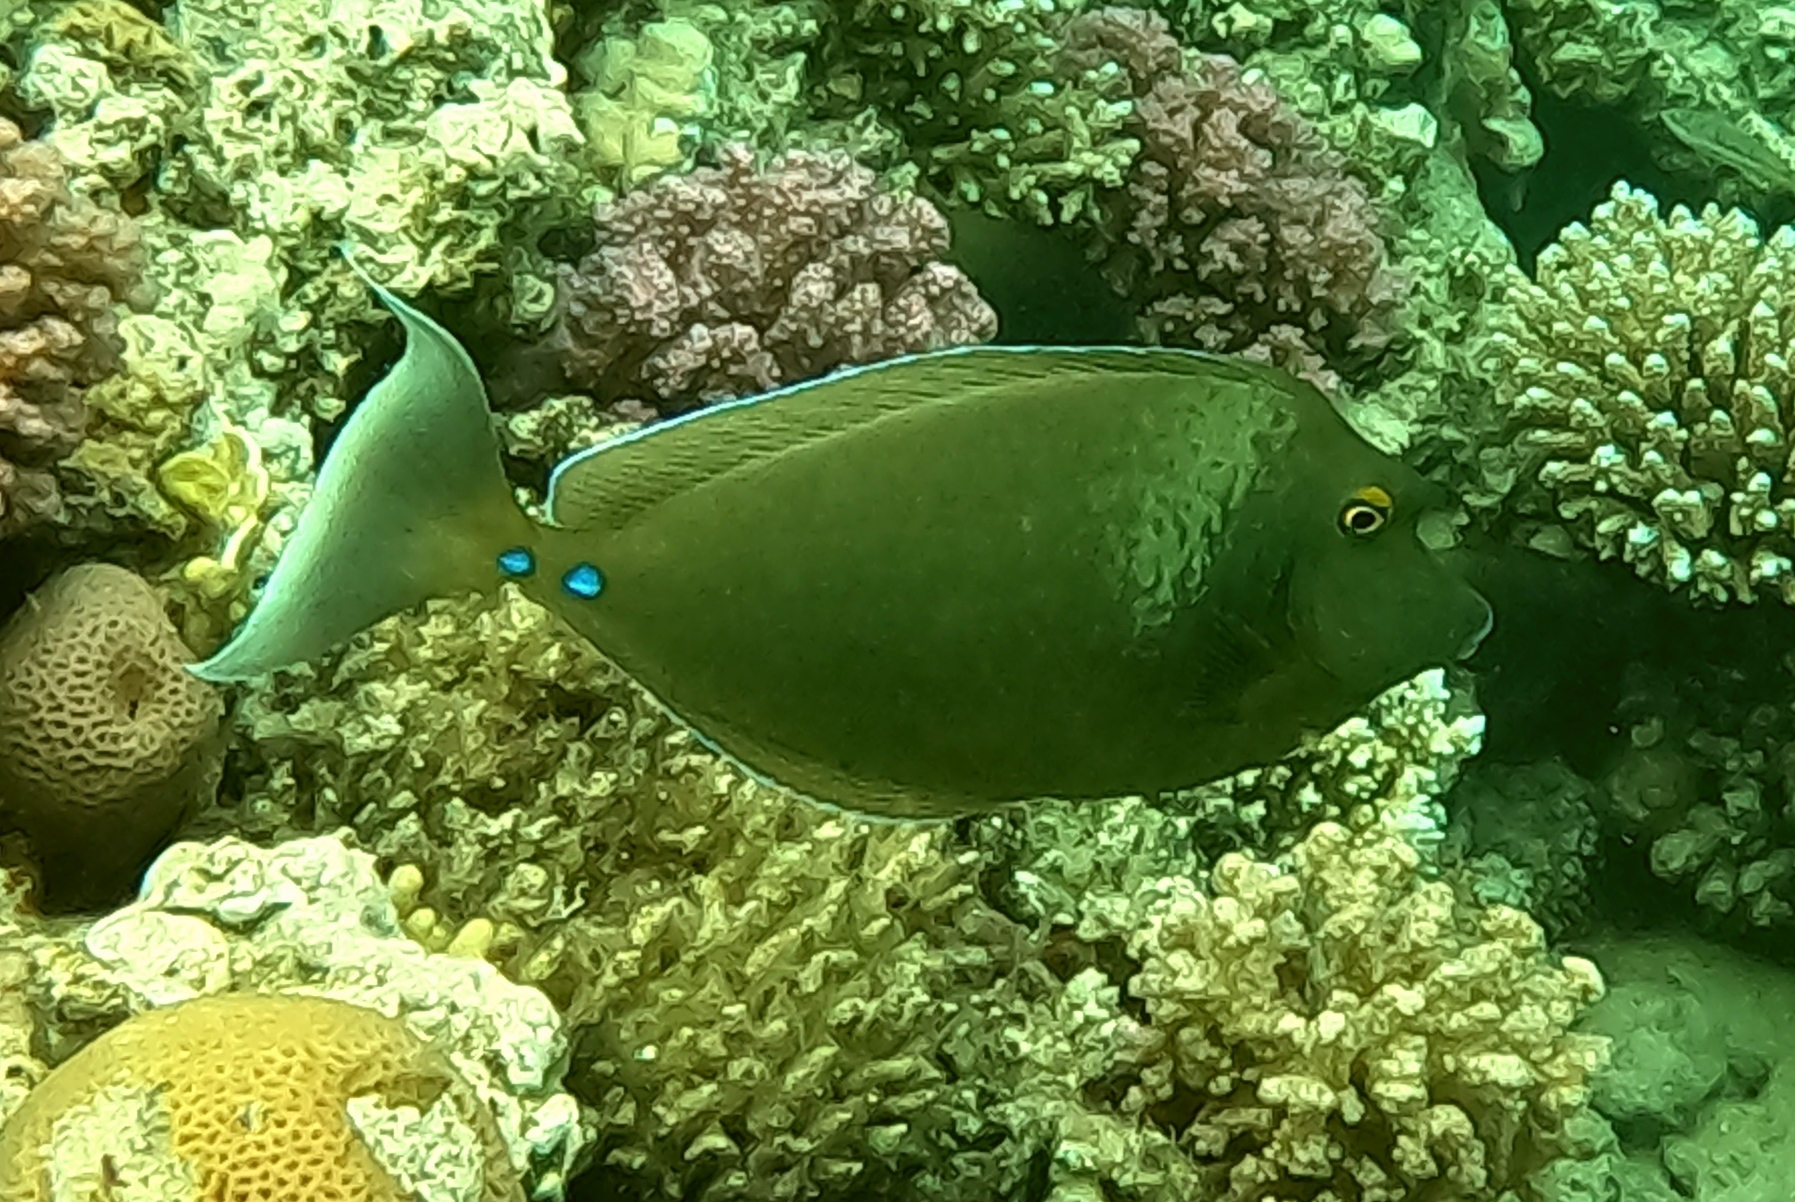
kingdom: Animalia
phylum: Chordata
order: Perciformes
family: Acanthuridae
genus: Naso
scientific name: Naso unicornis
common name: Bluespine unicornfish
